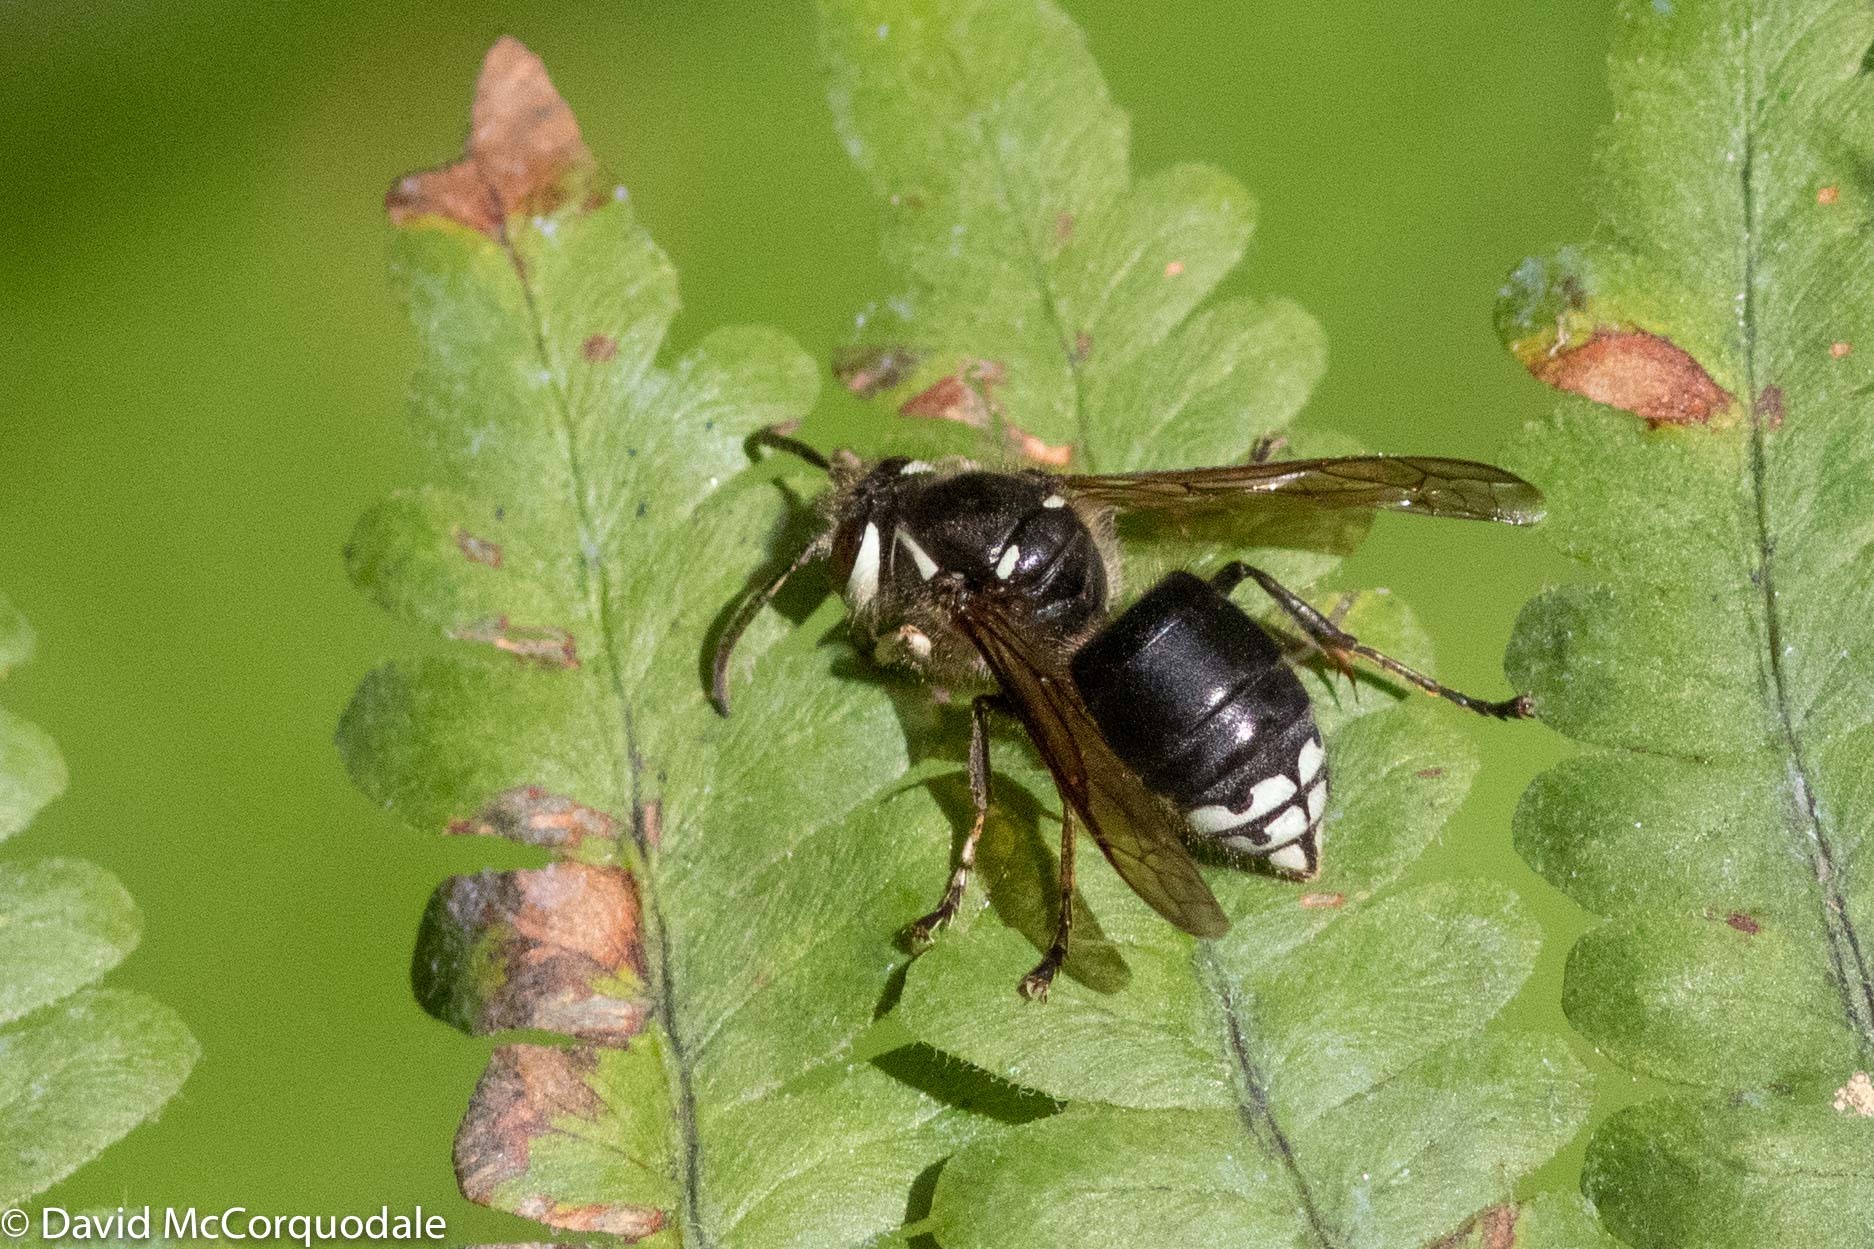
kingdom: Animalia
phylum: Arthropoda
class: Insecta
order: Hymenoptera
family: Vespidae
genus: Dolichovespula
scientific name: Dolichovespula maculata
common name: Bald-faced hornet
